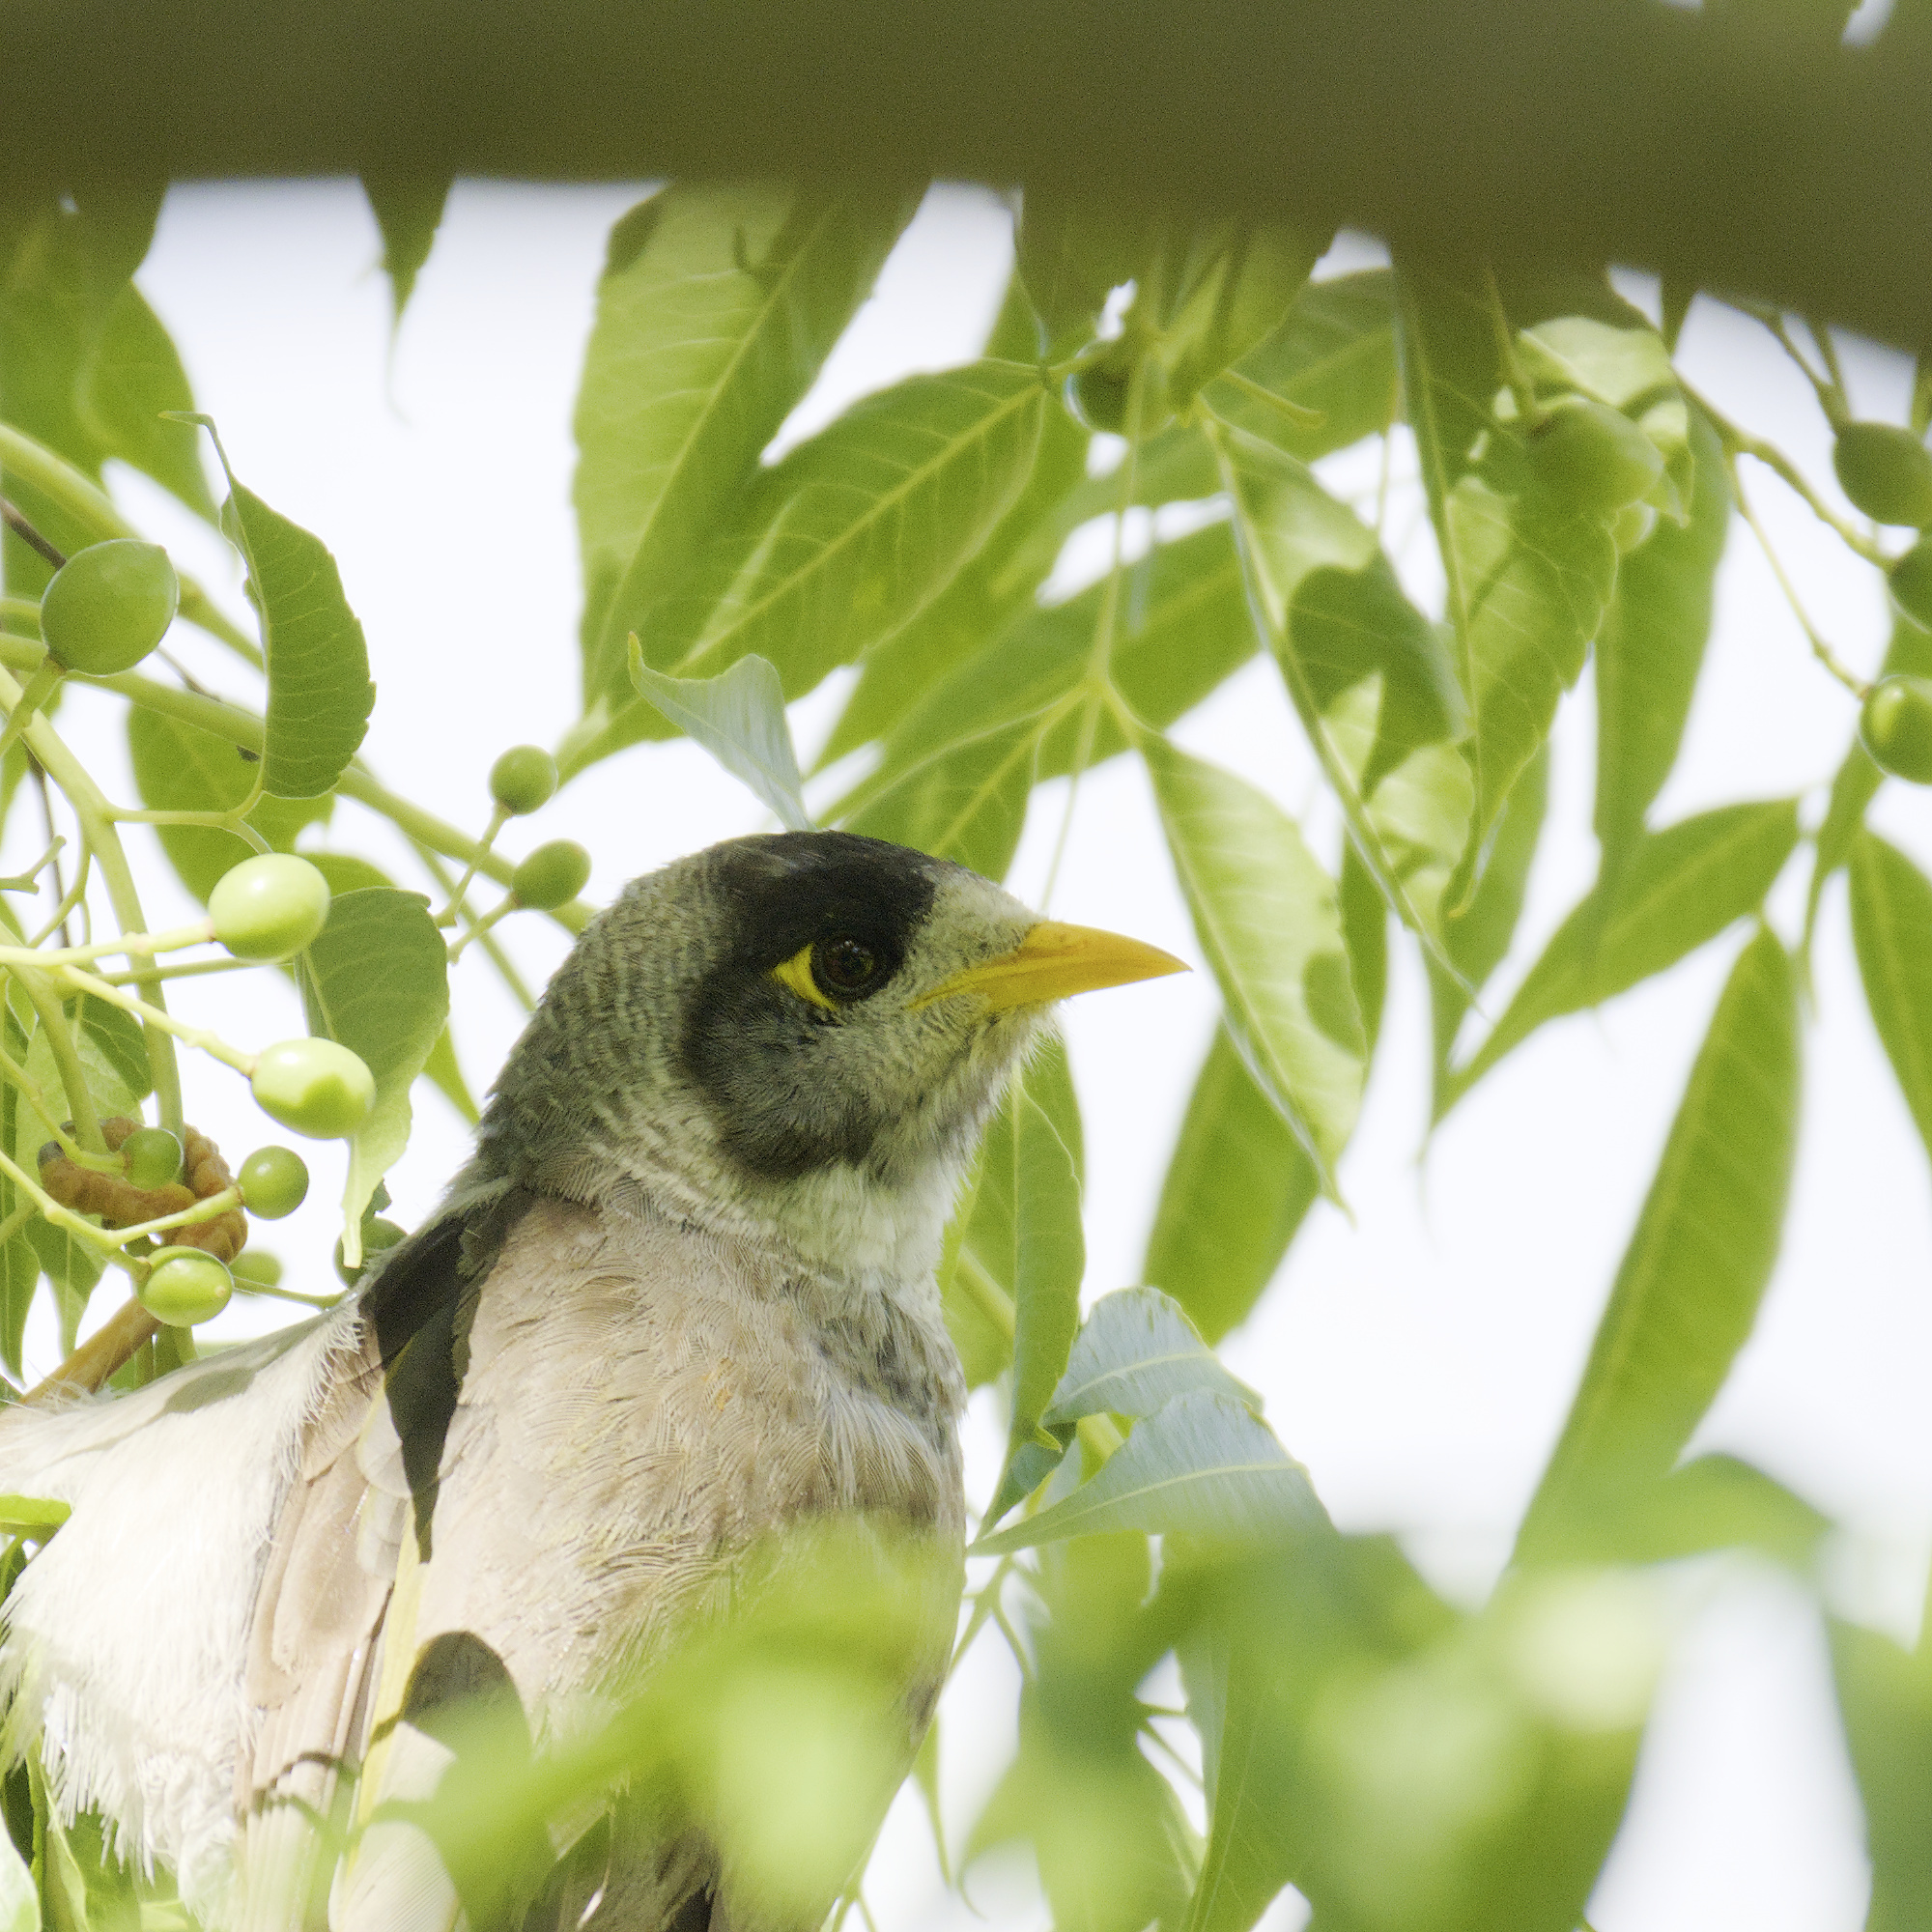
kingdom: Animalia
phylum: Chordata
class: Aves
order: Passeriformes
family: Meliphagidae
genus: Manorina
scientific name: Manorina melanocephala
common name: Noisy miner
